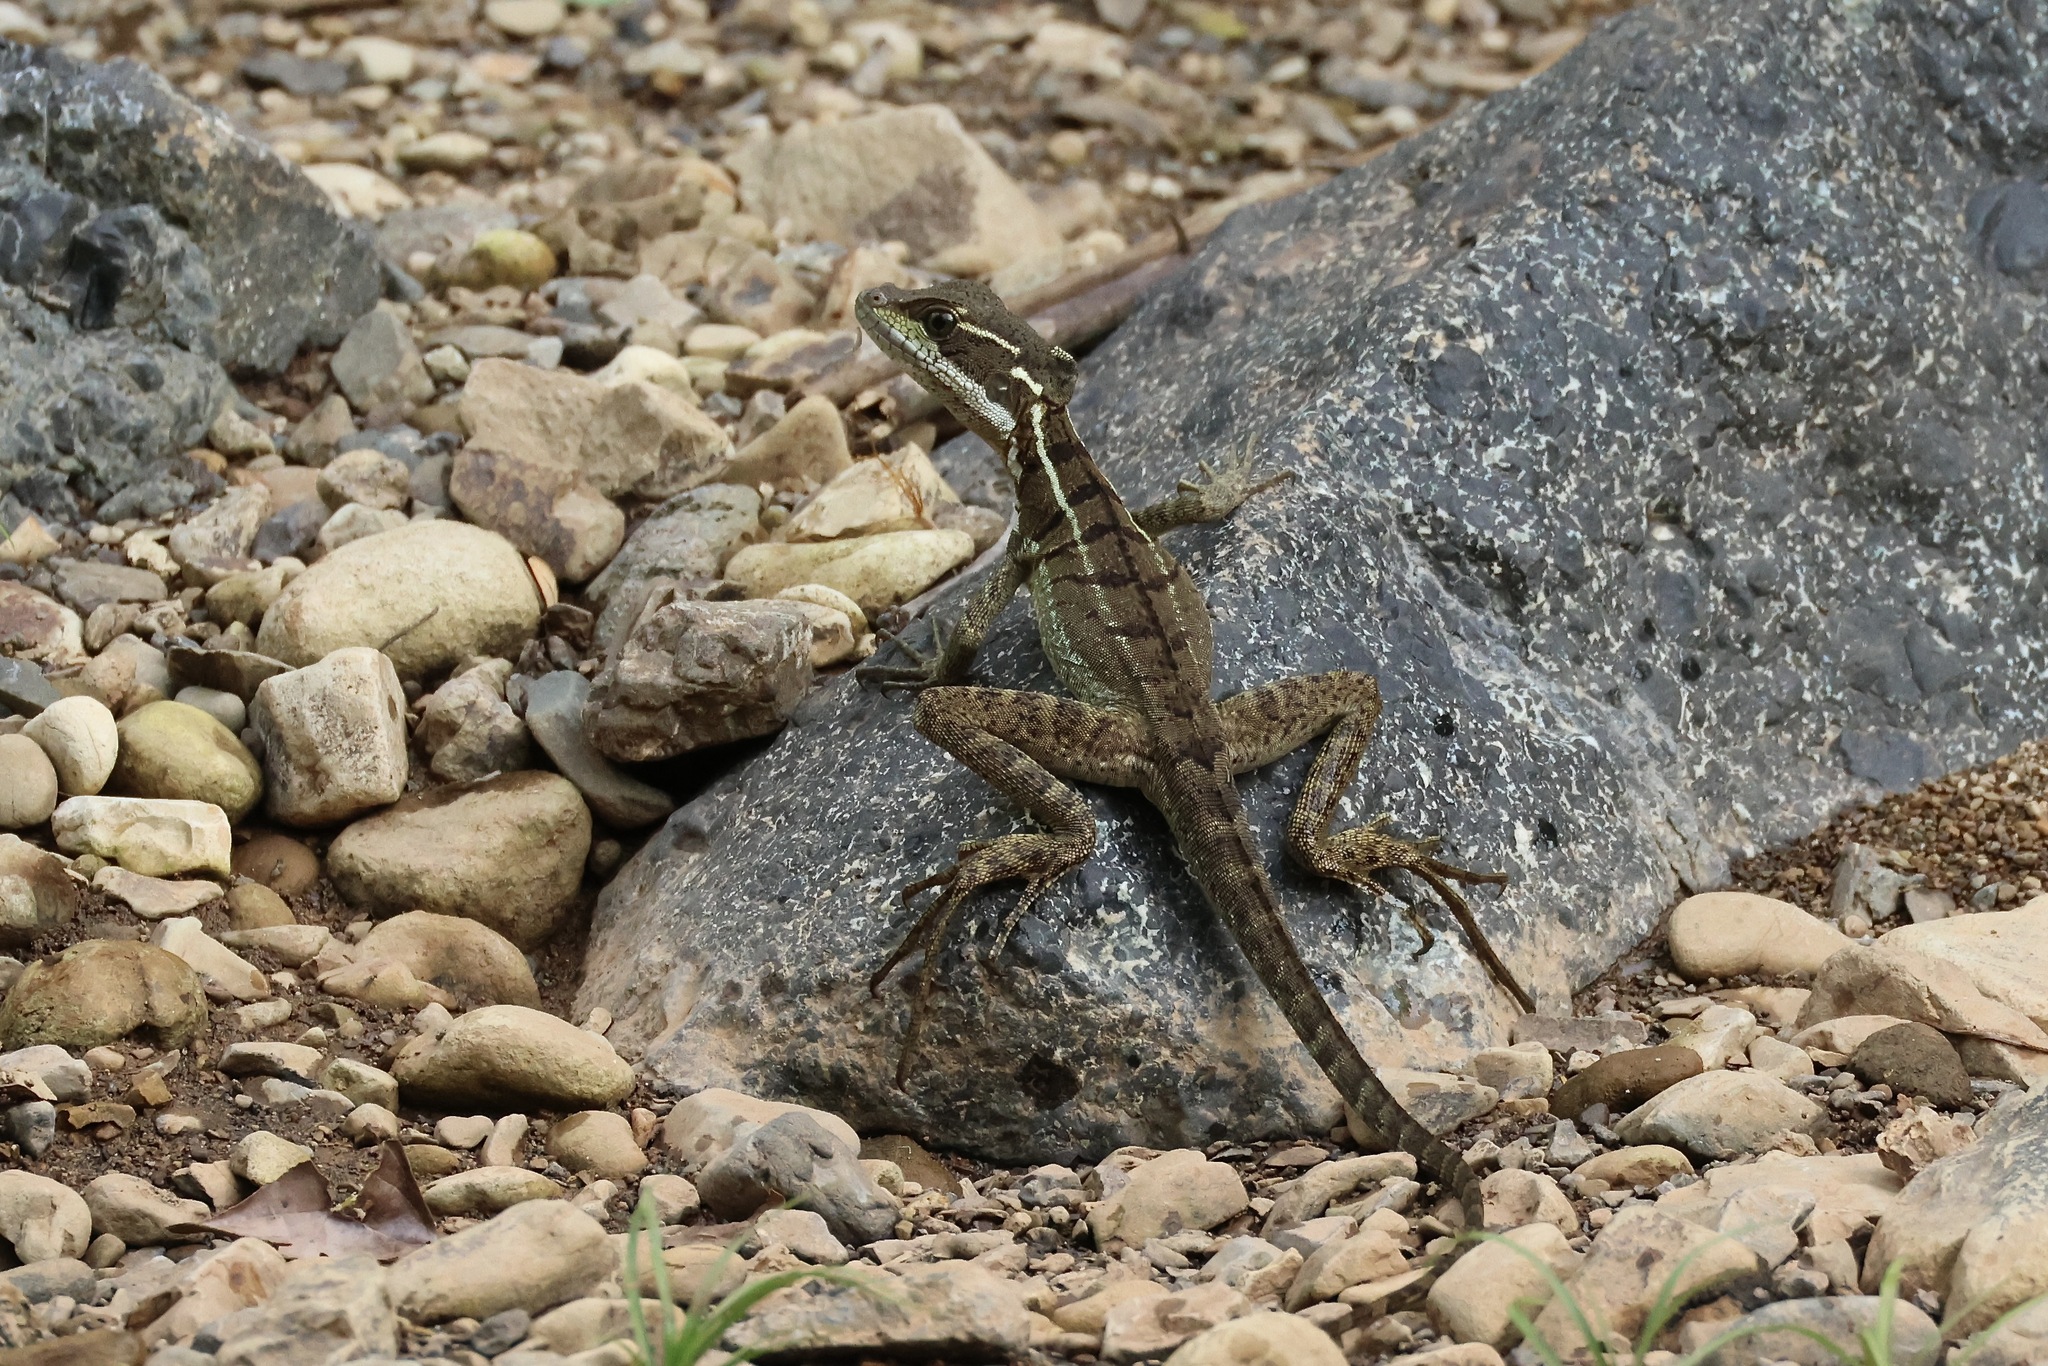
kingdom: Animalia
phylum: Chordata
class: Squamata
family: Corytophanidae
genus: Basiliscus
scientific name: Basiliscus basiliscus
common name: Common basilisk
